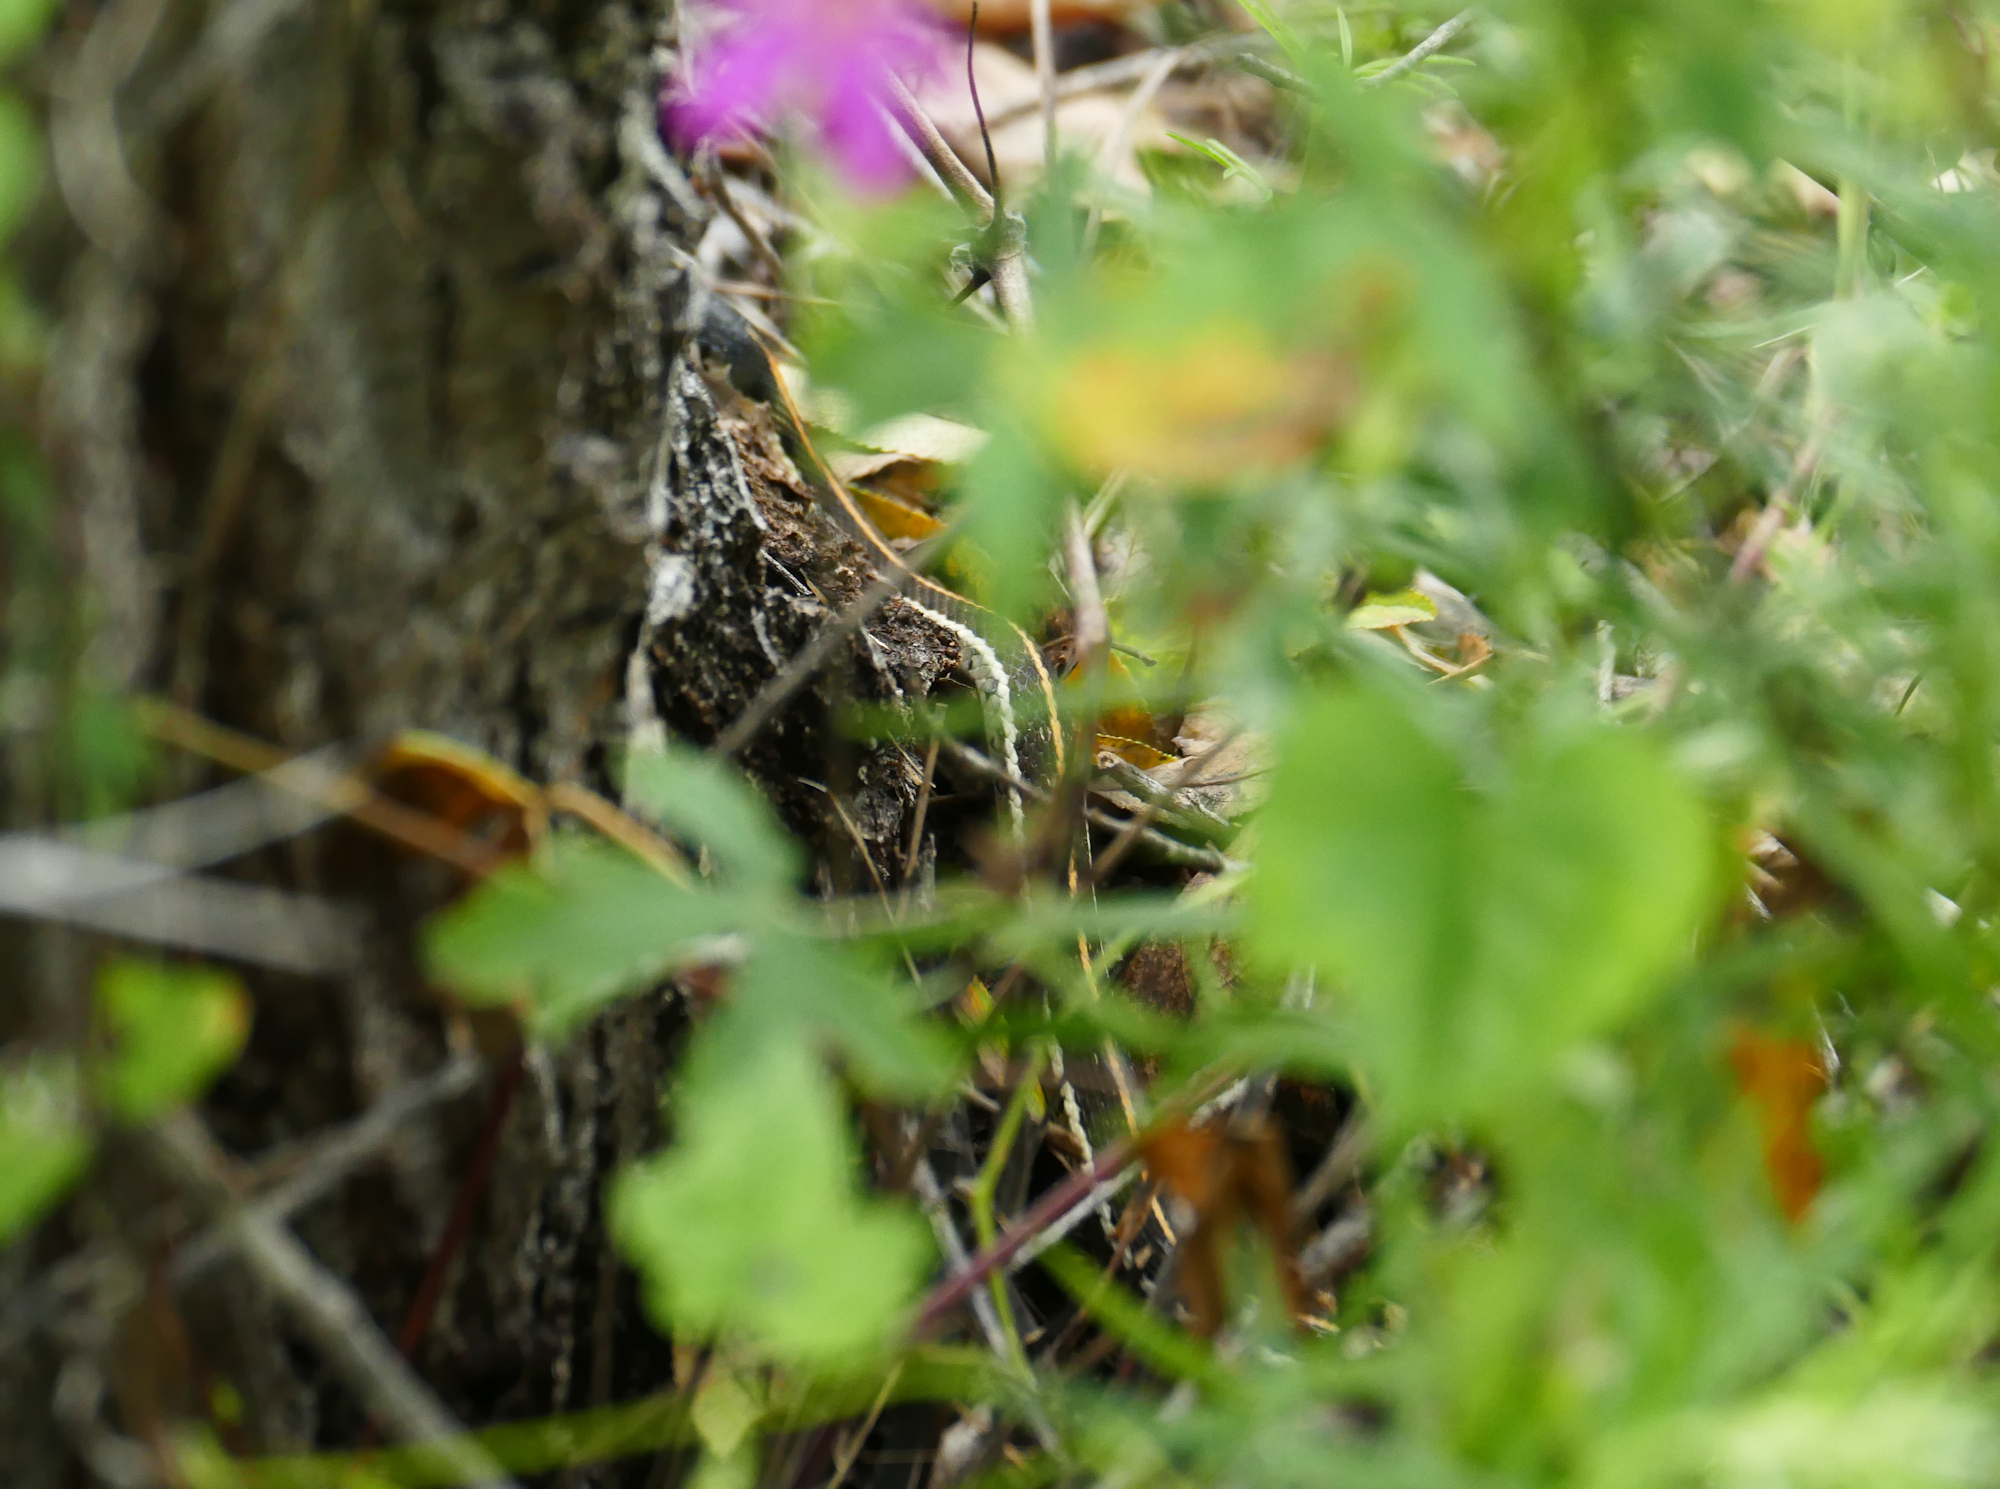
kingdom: Animalia
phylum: Chordata
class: Squamata
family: Colubridae
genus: Thamnophis
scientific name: Thamnophis cyrtopsis
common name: Black-necked gartersnake
